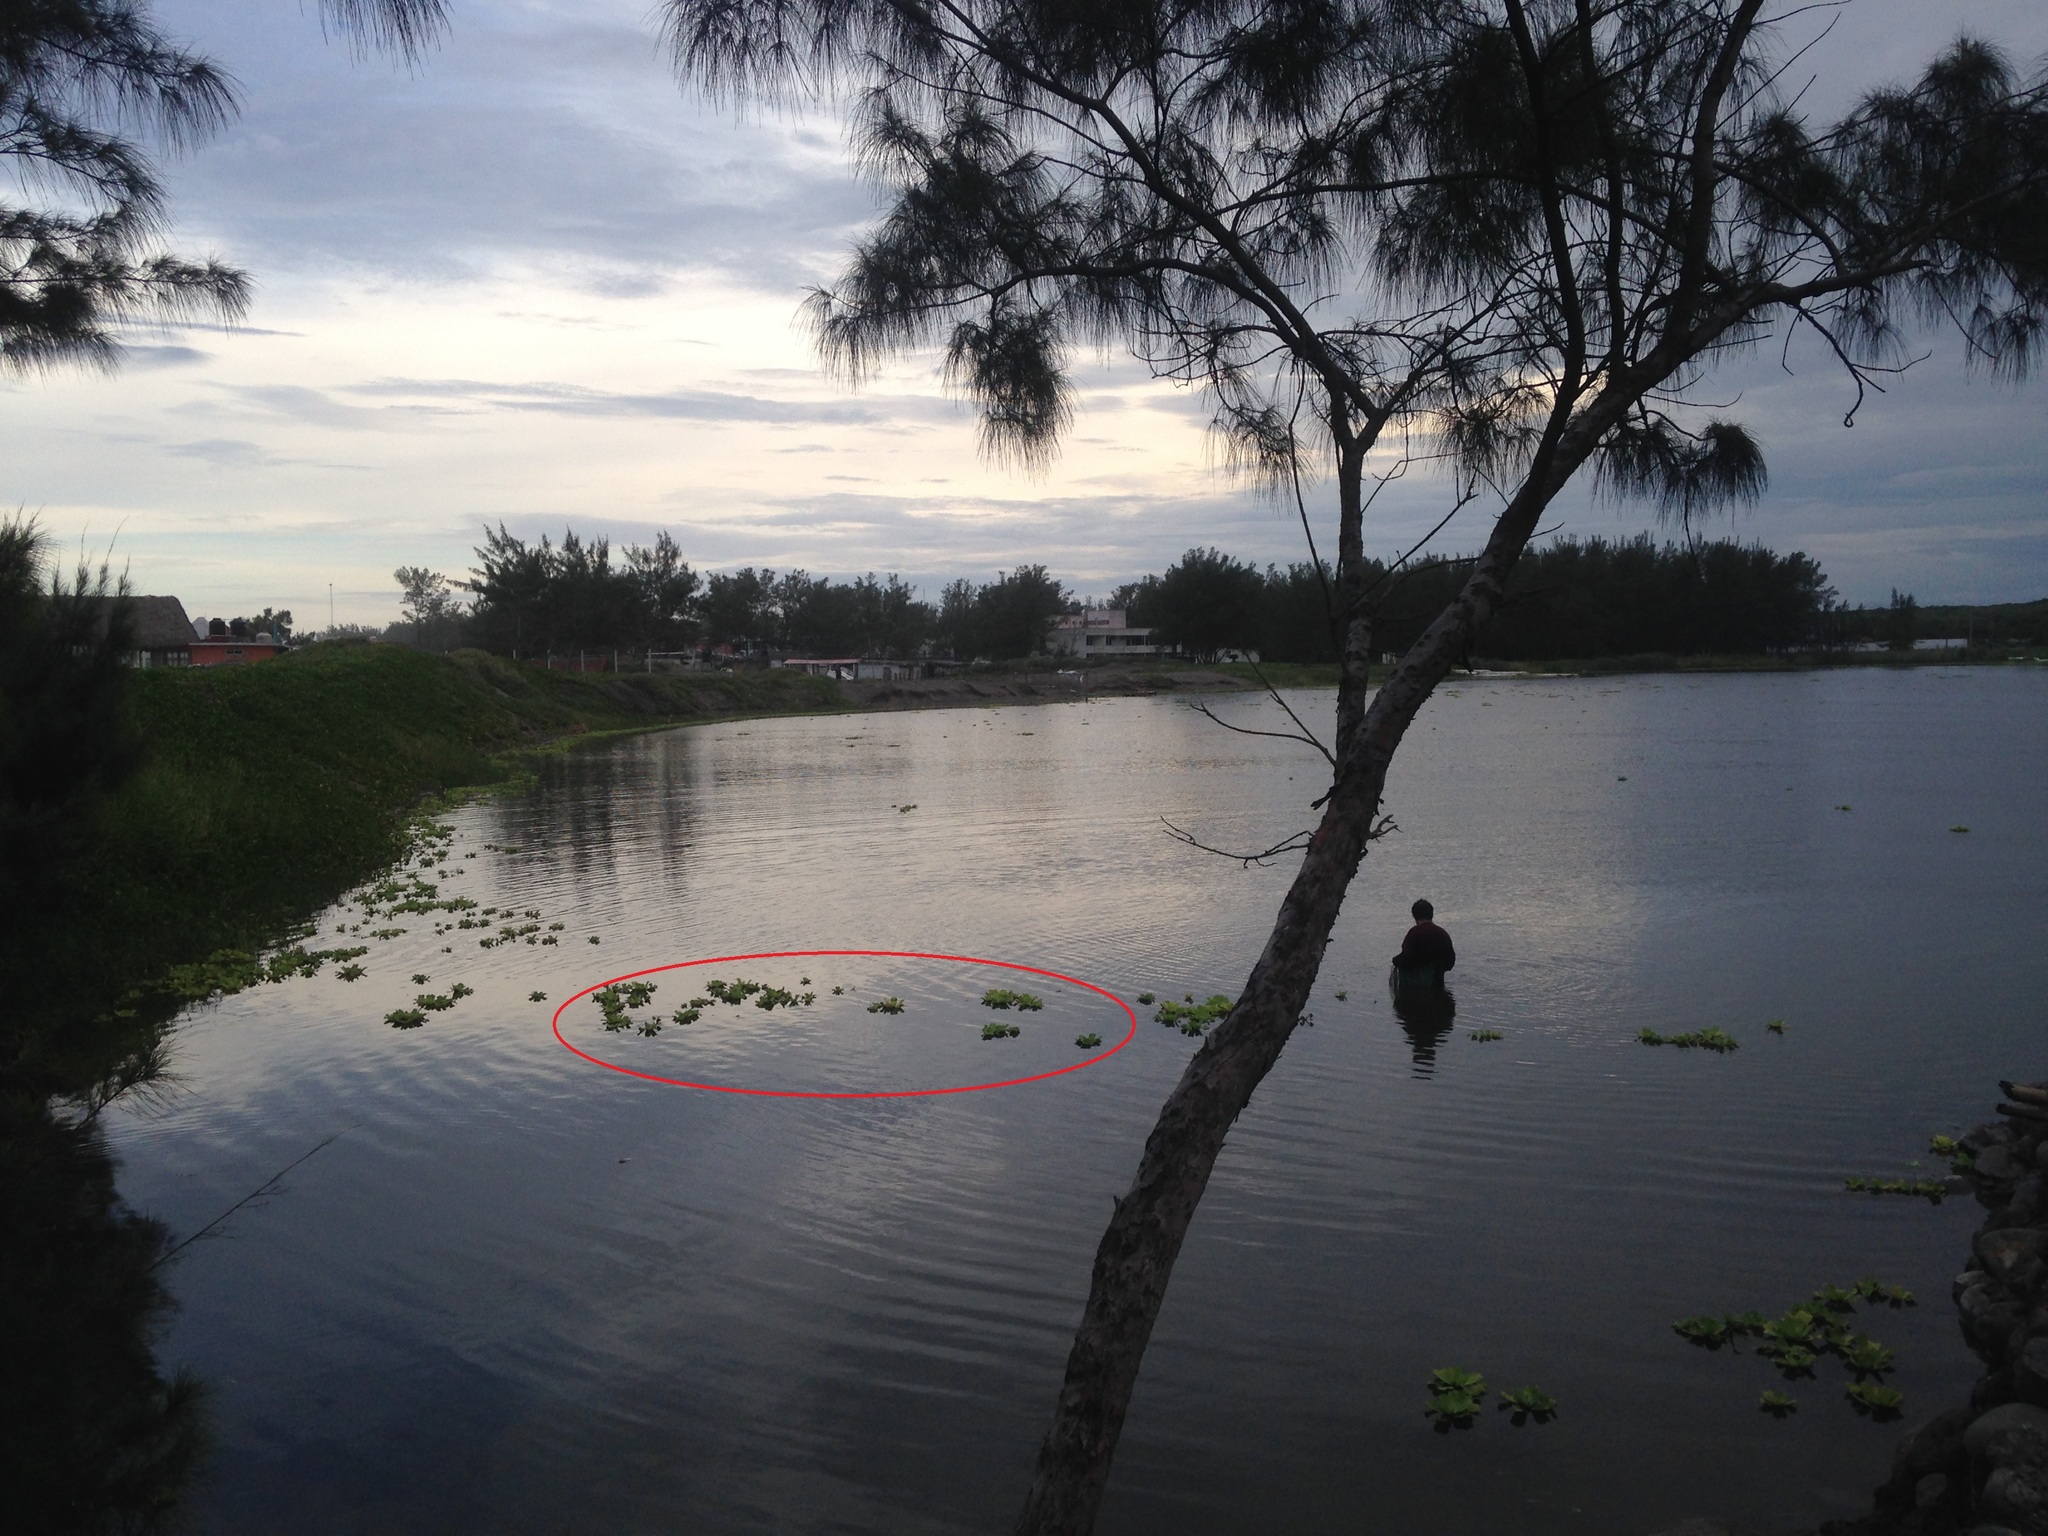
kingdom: Plantae
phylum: Tracheophyta
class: Liliopsida
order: Alismatales
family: Araceae
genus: Pistia
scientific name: Pistia stratiotes
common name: Water lettuce
